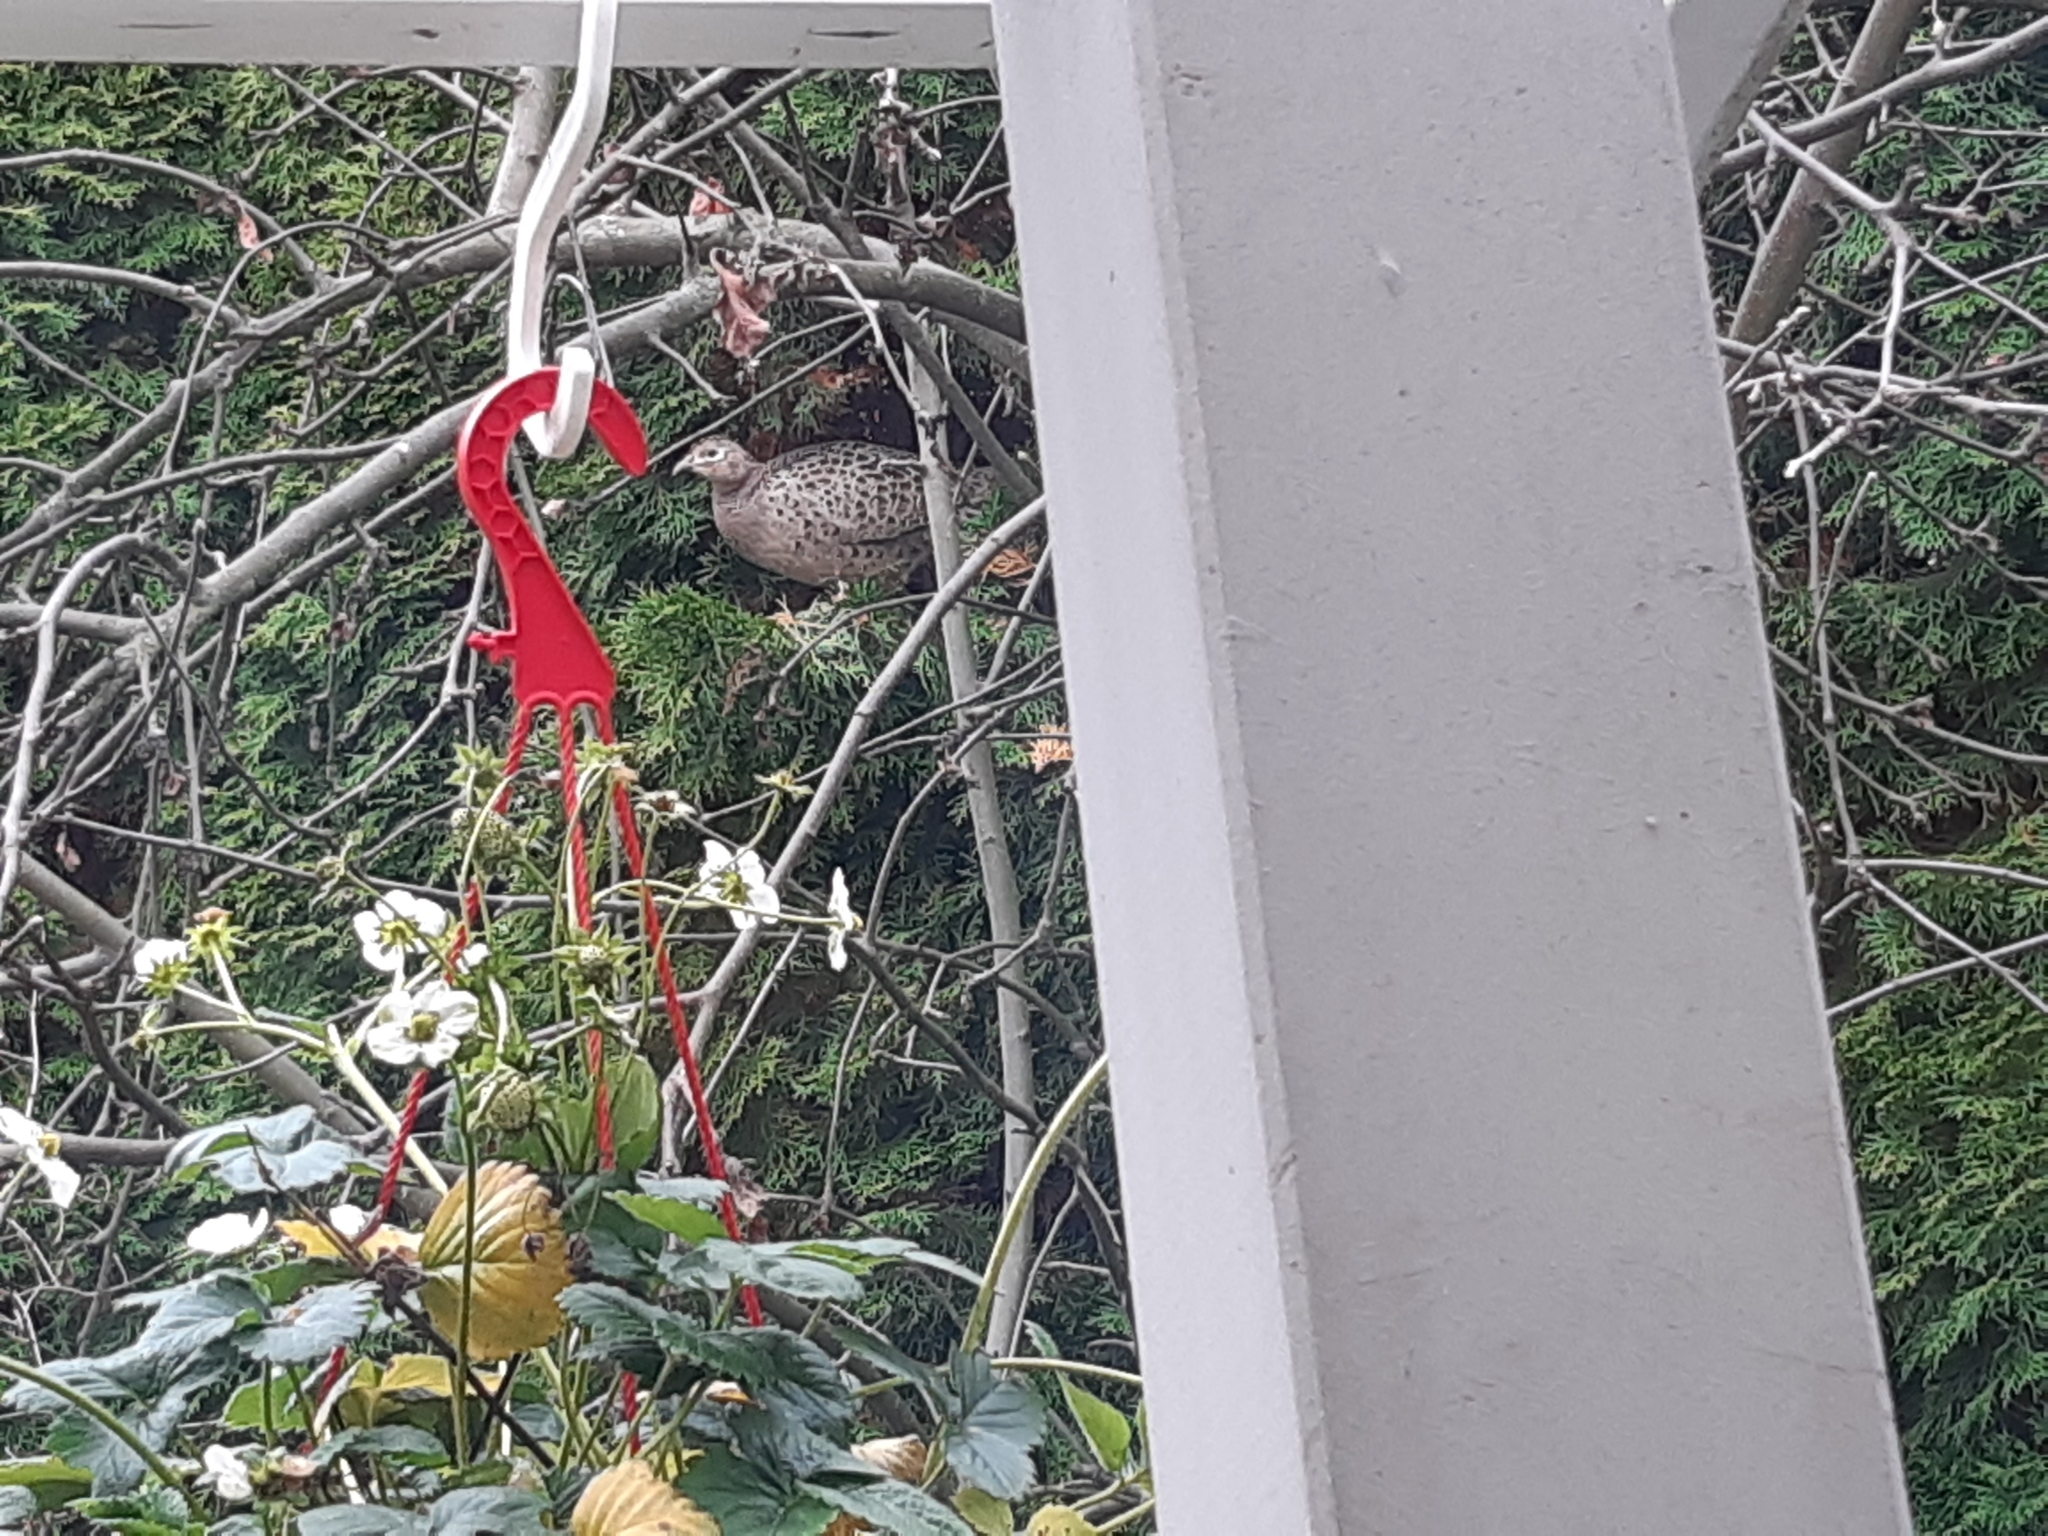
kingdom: Animalia
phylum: Chordata
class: Aves
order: Galliformes
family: Phasianidae
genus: Phasianus
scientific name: Phasianus colchicus
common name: Common pheasant
